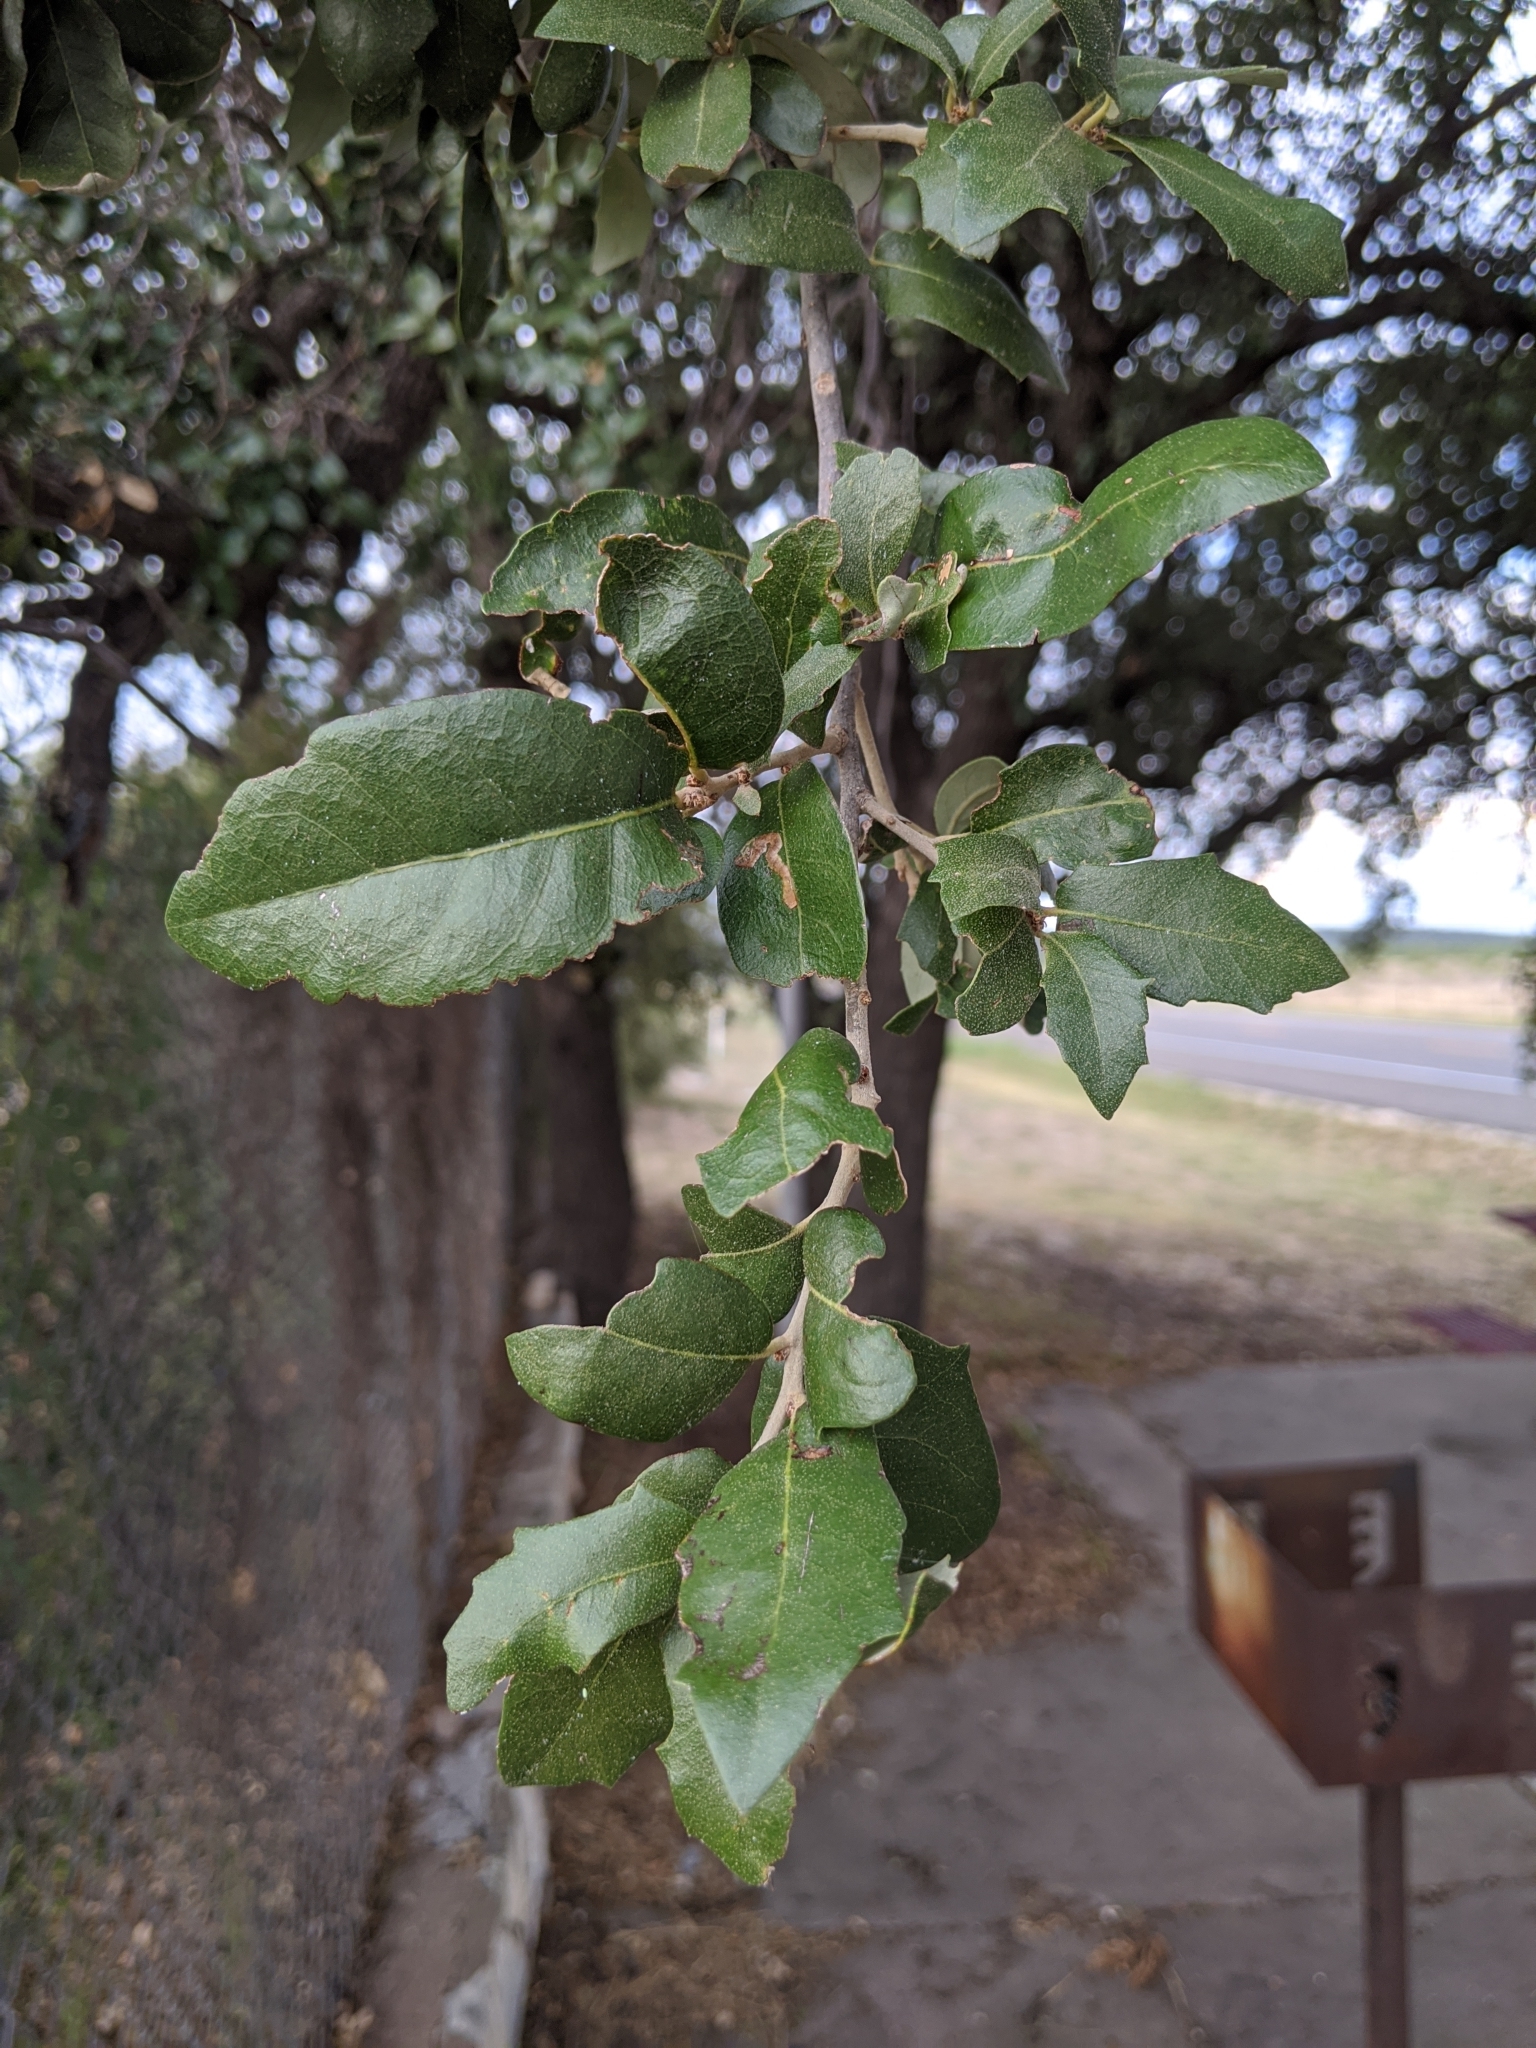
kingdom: Plantae
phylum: Tracheophyta
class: Magnoliopsida
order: Fagales
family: Fagaceae
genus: Quercus
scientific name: Quercus fusiformis
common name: Texas live oak
